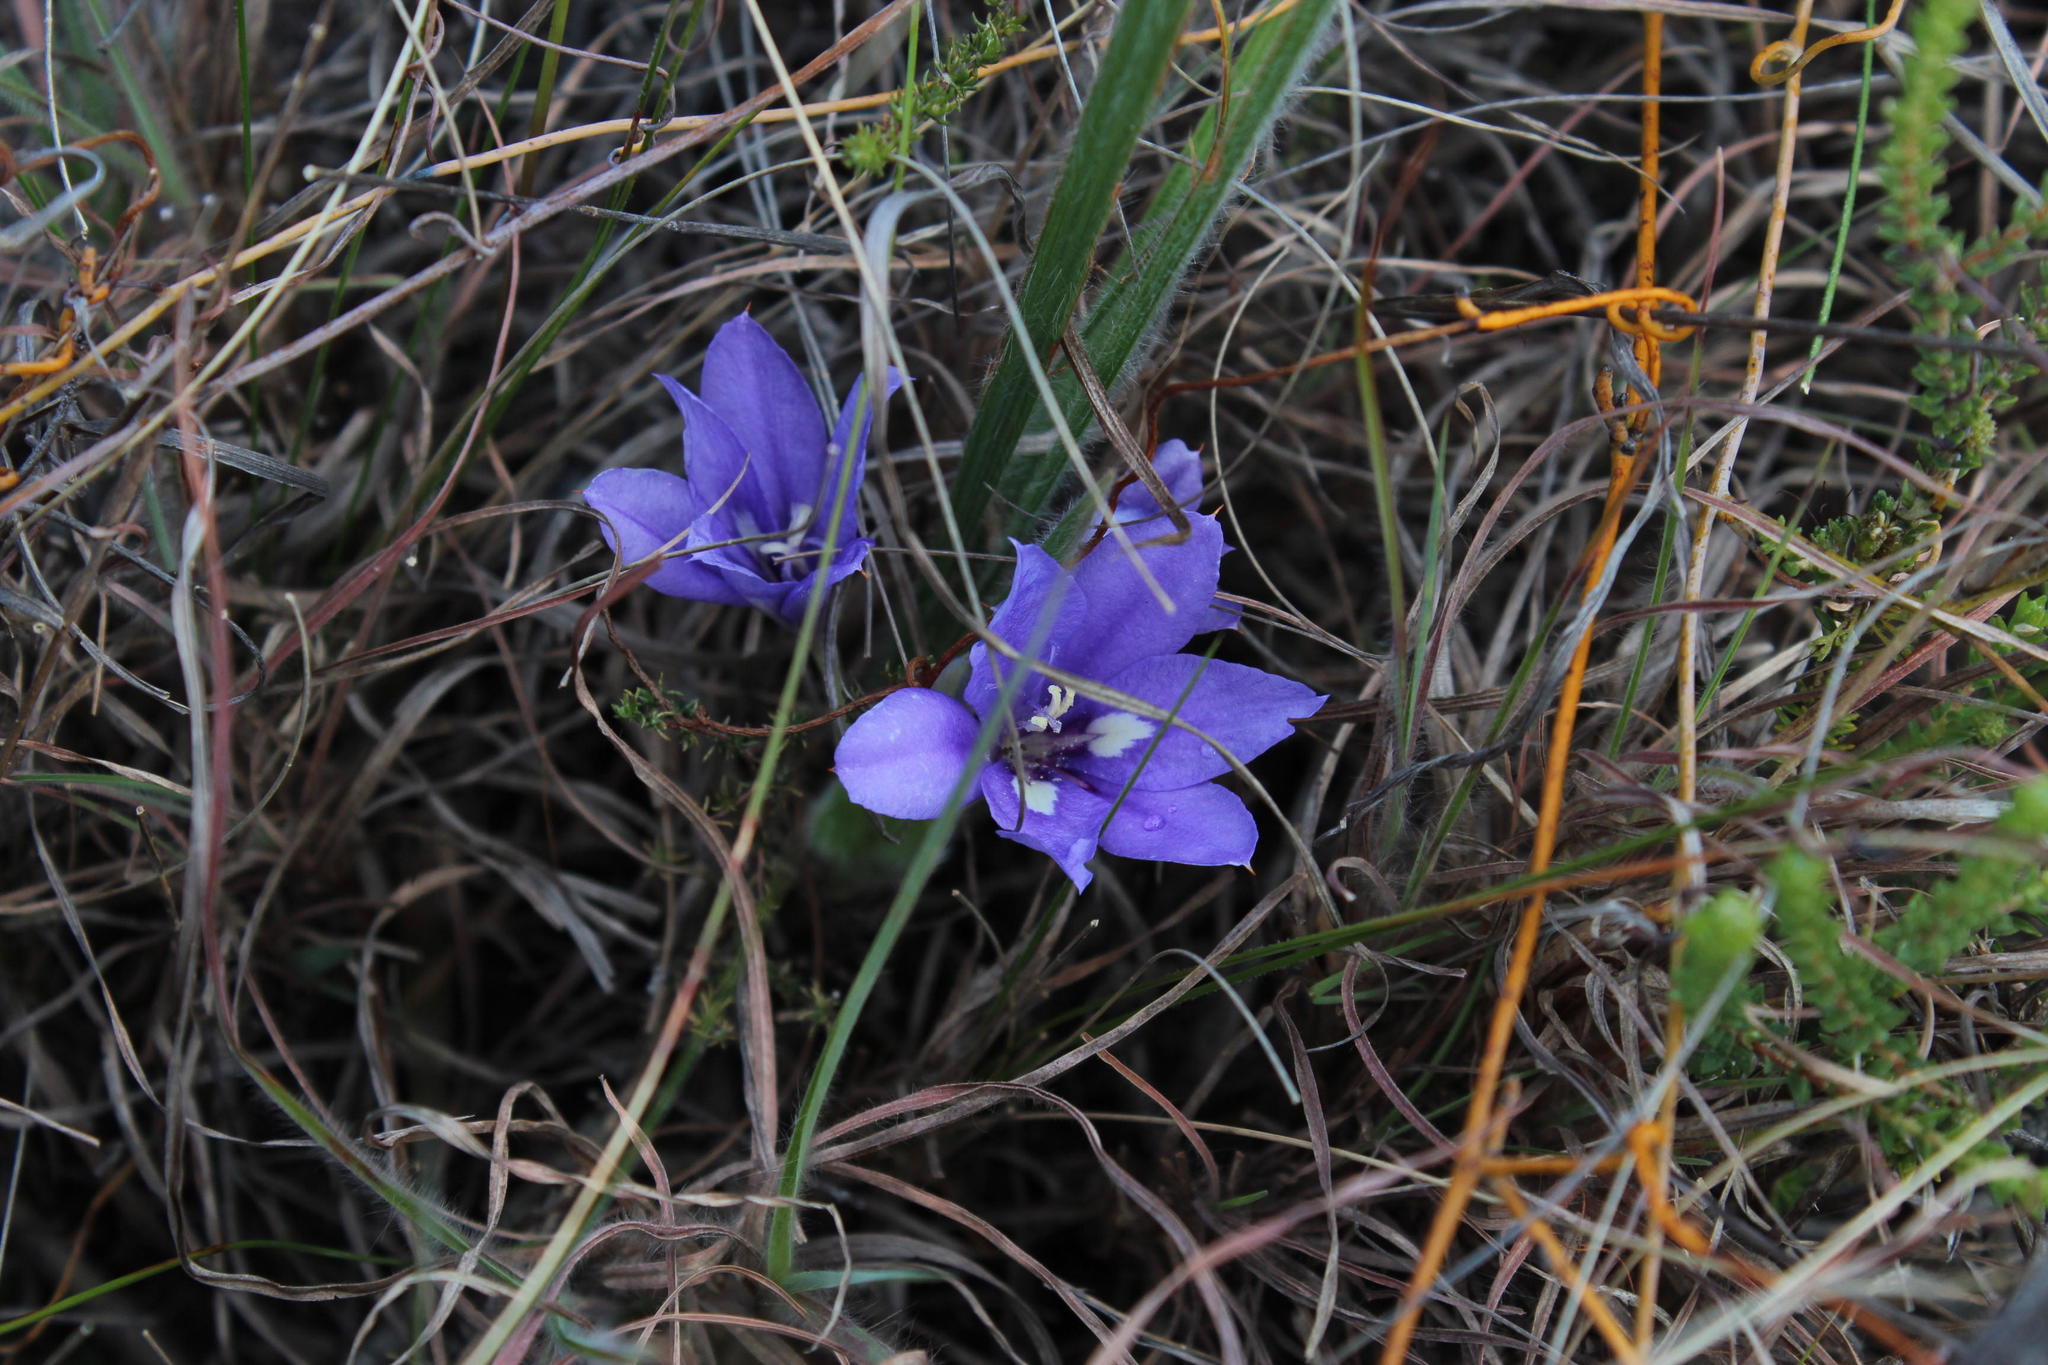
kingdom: Plantae
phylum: Tracheophyta
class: Liliopsida
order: Asparagales
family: Iridaceae
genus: Babiana
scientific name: Babiana sambucina
